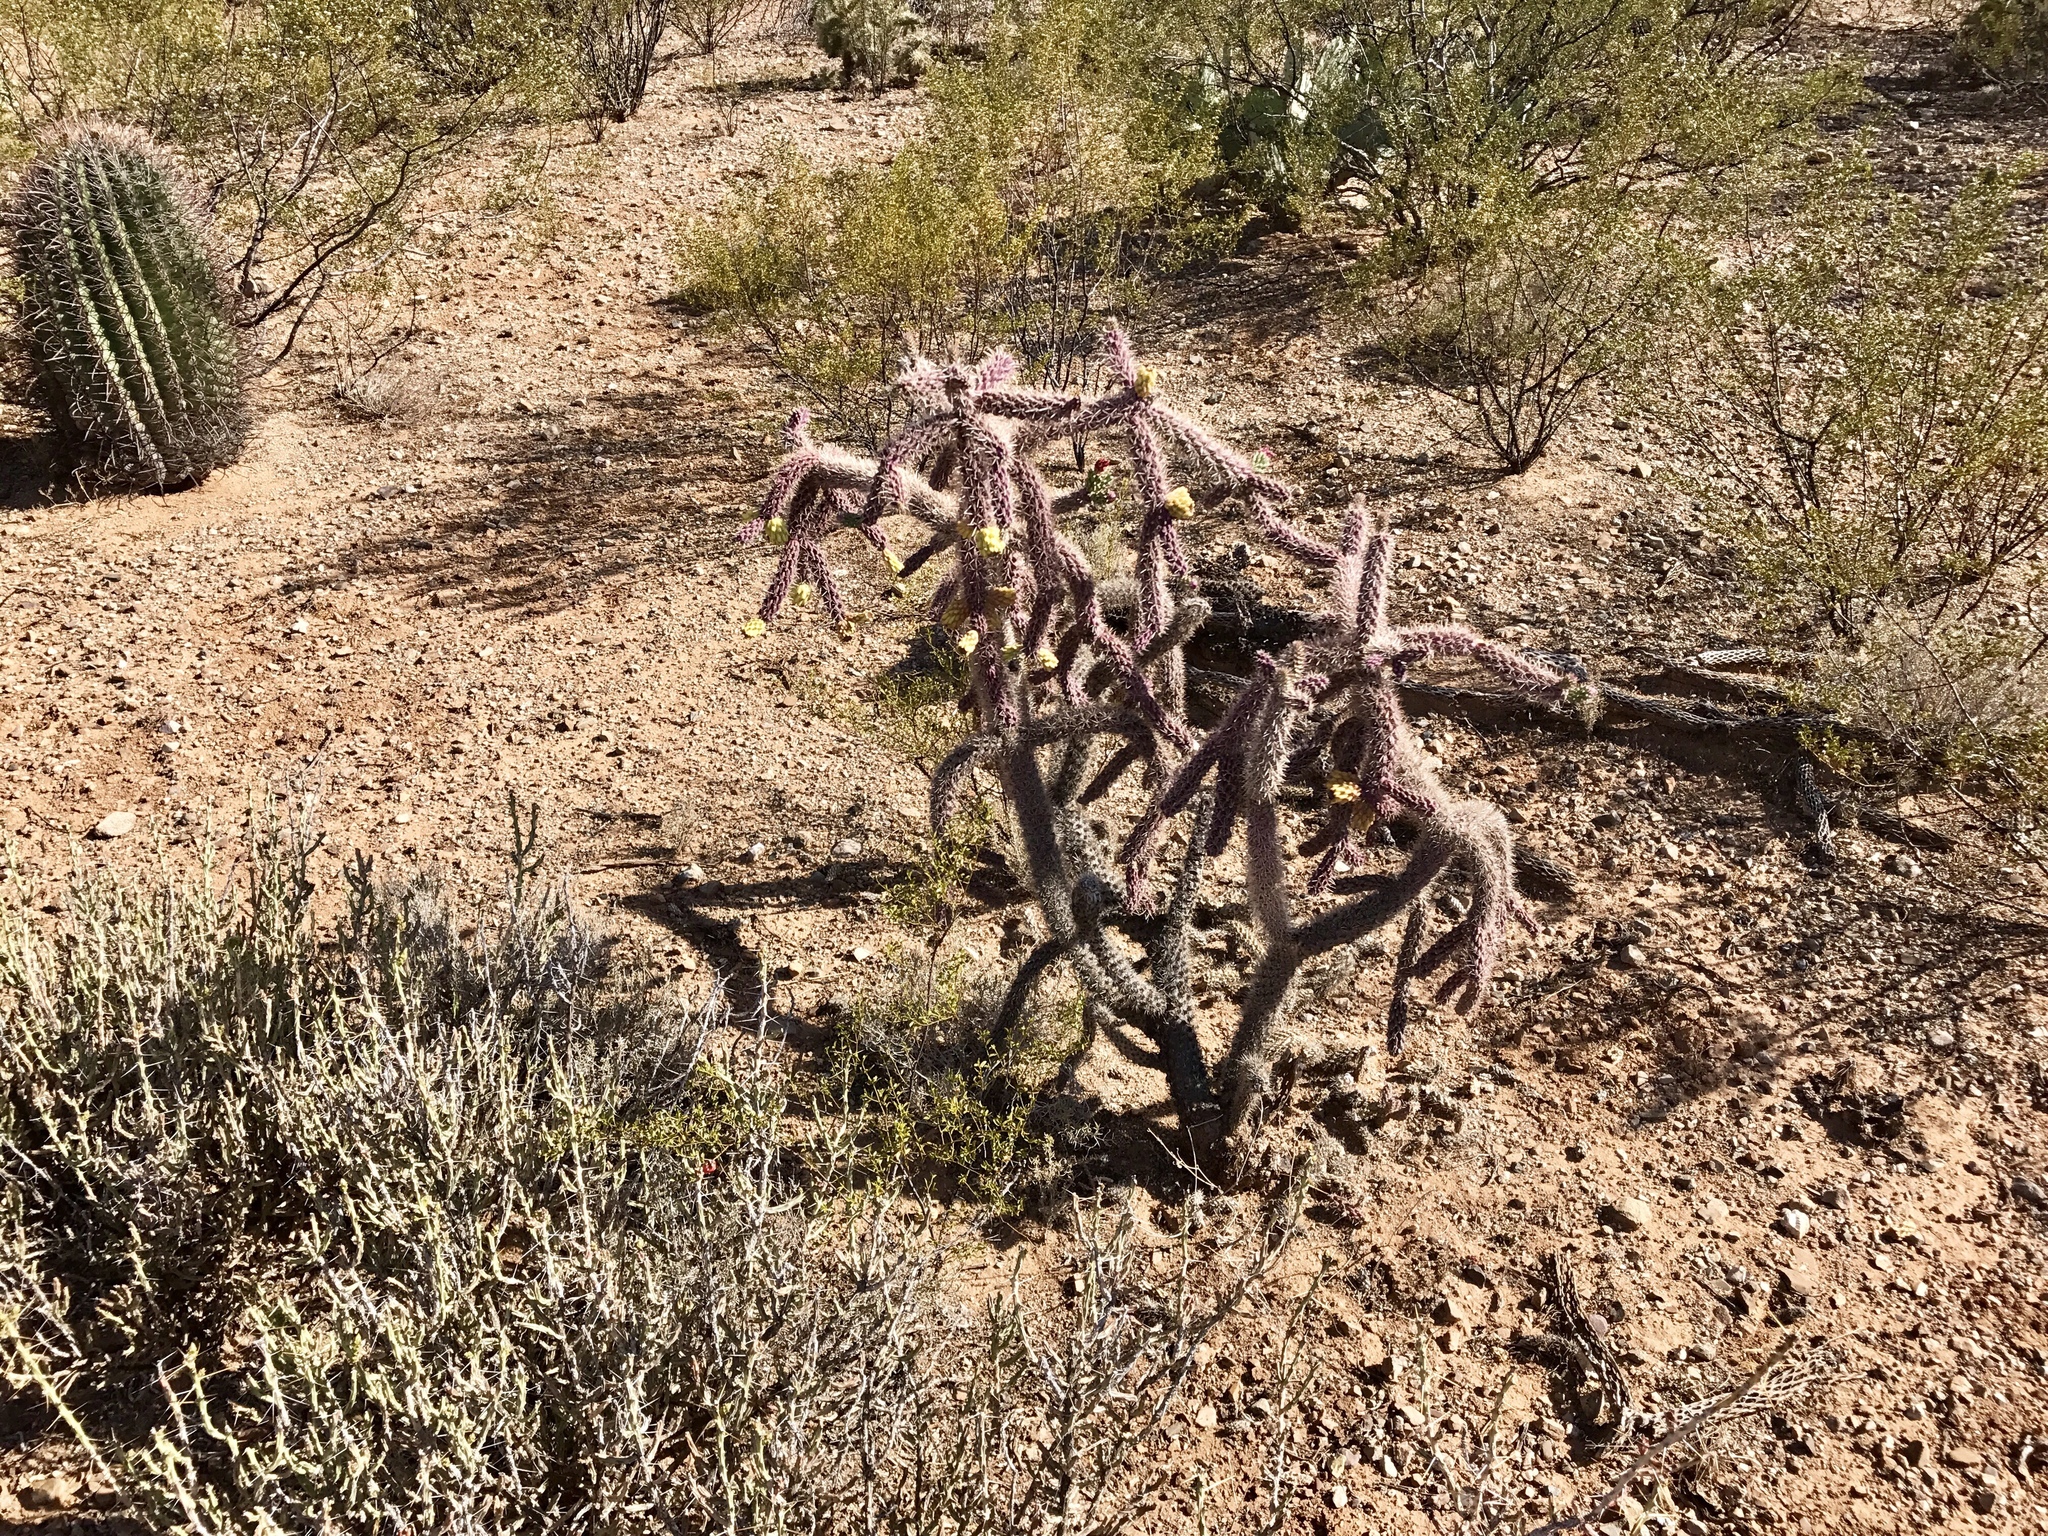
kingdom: Plantae
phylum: Tracheophyta
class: Magnoliopsida
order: Caryophyllales
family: Cactaceae
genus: Cylindropuntia
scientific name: Cylindropuntia imbricata
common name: Candelabrum cactus
